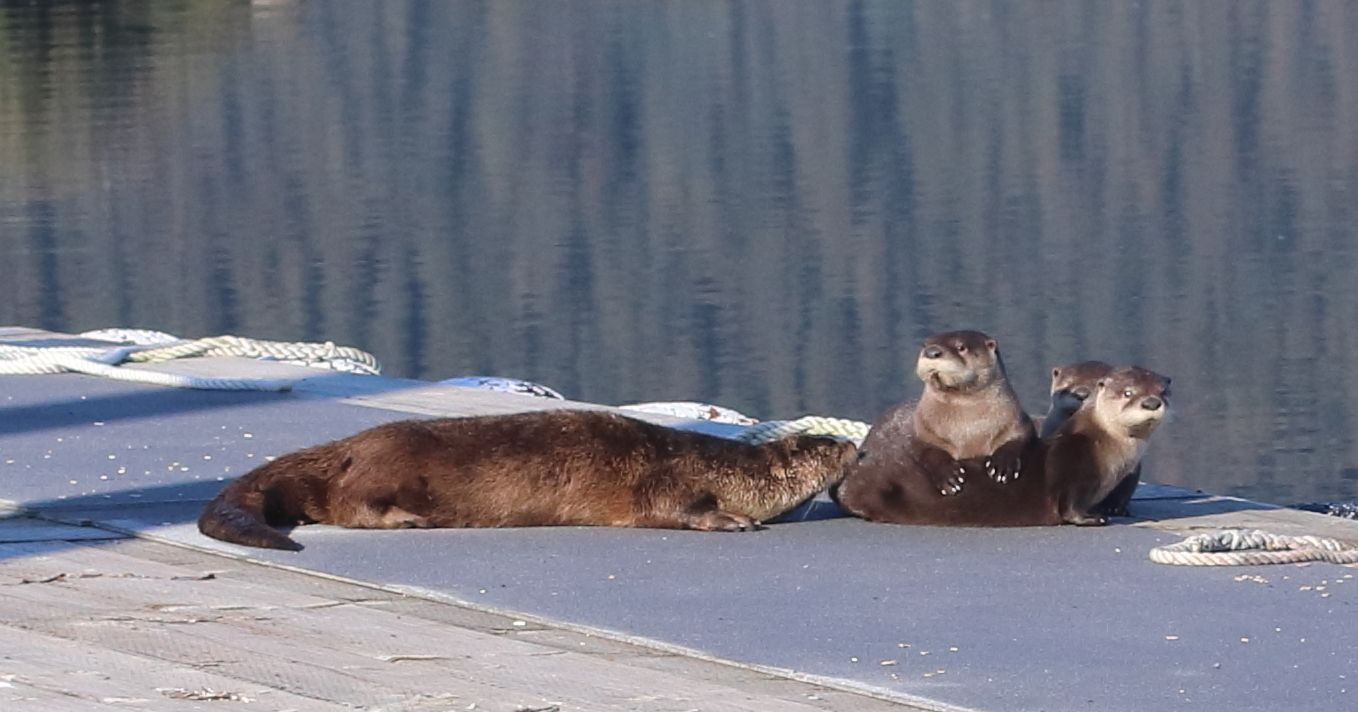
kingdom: Animalia
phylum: Chordata
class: Mammalia
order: Carnivora
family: Mustelidae
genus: Lontra
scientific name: Lontra canadensis
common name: North american river otter
